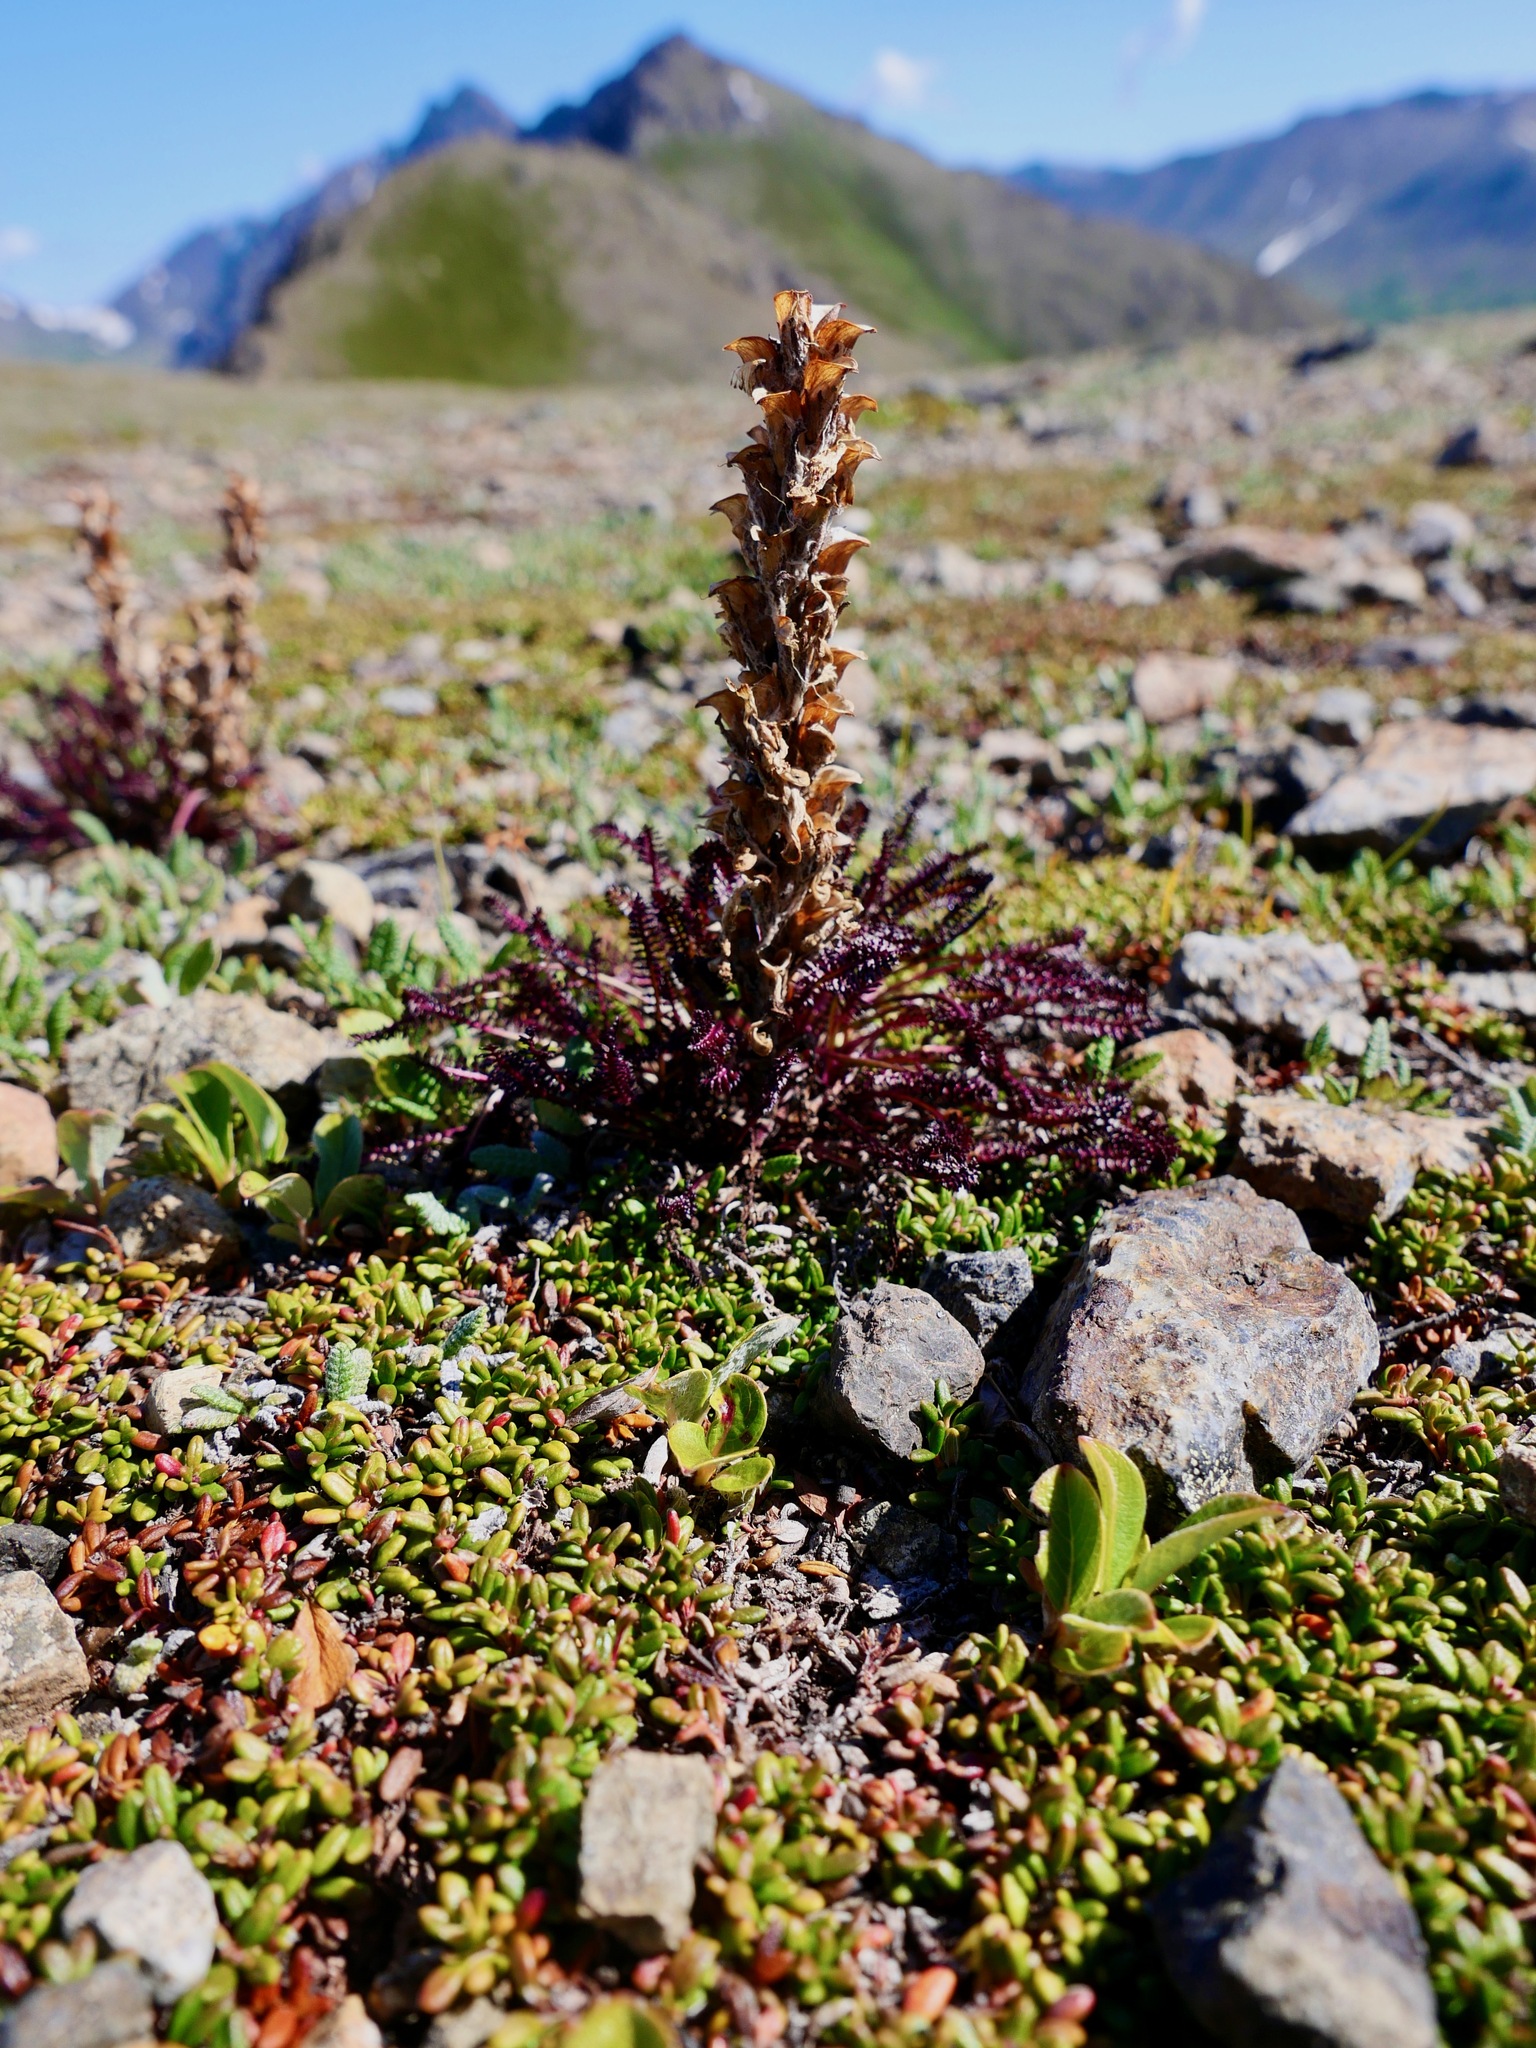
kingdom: Plantae
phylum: Tracheophyta
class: Magnoliopsida
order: Lamiales
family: Orobanchaceae
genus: Pedicularis
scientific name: Pedicularis lanata
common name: Woolly lousewort
